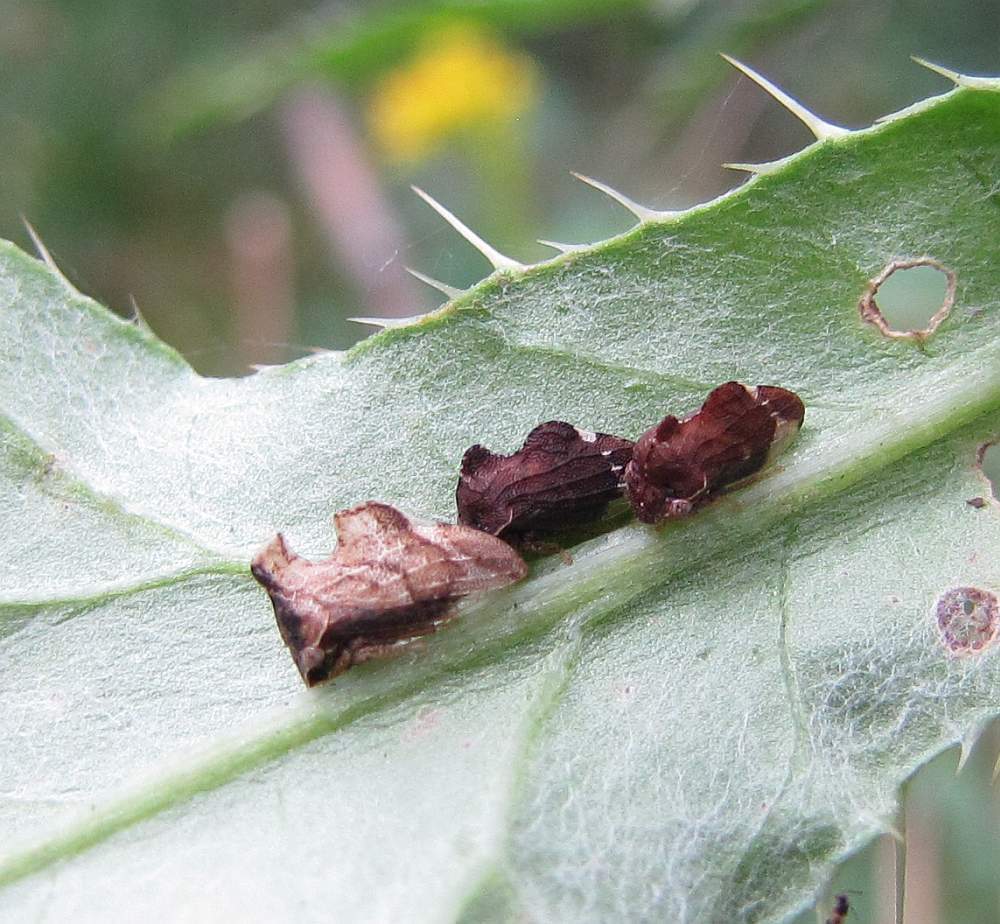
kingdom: Animalia
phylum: Arthropoda
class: Insecta
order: Hemiptera
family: Membracidae
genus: Entylia
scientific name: Entylia carinata
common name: Keeled treehopper
